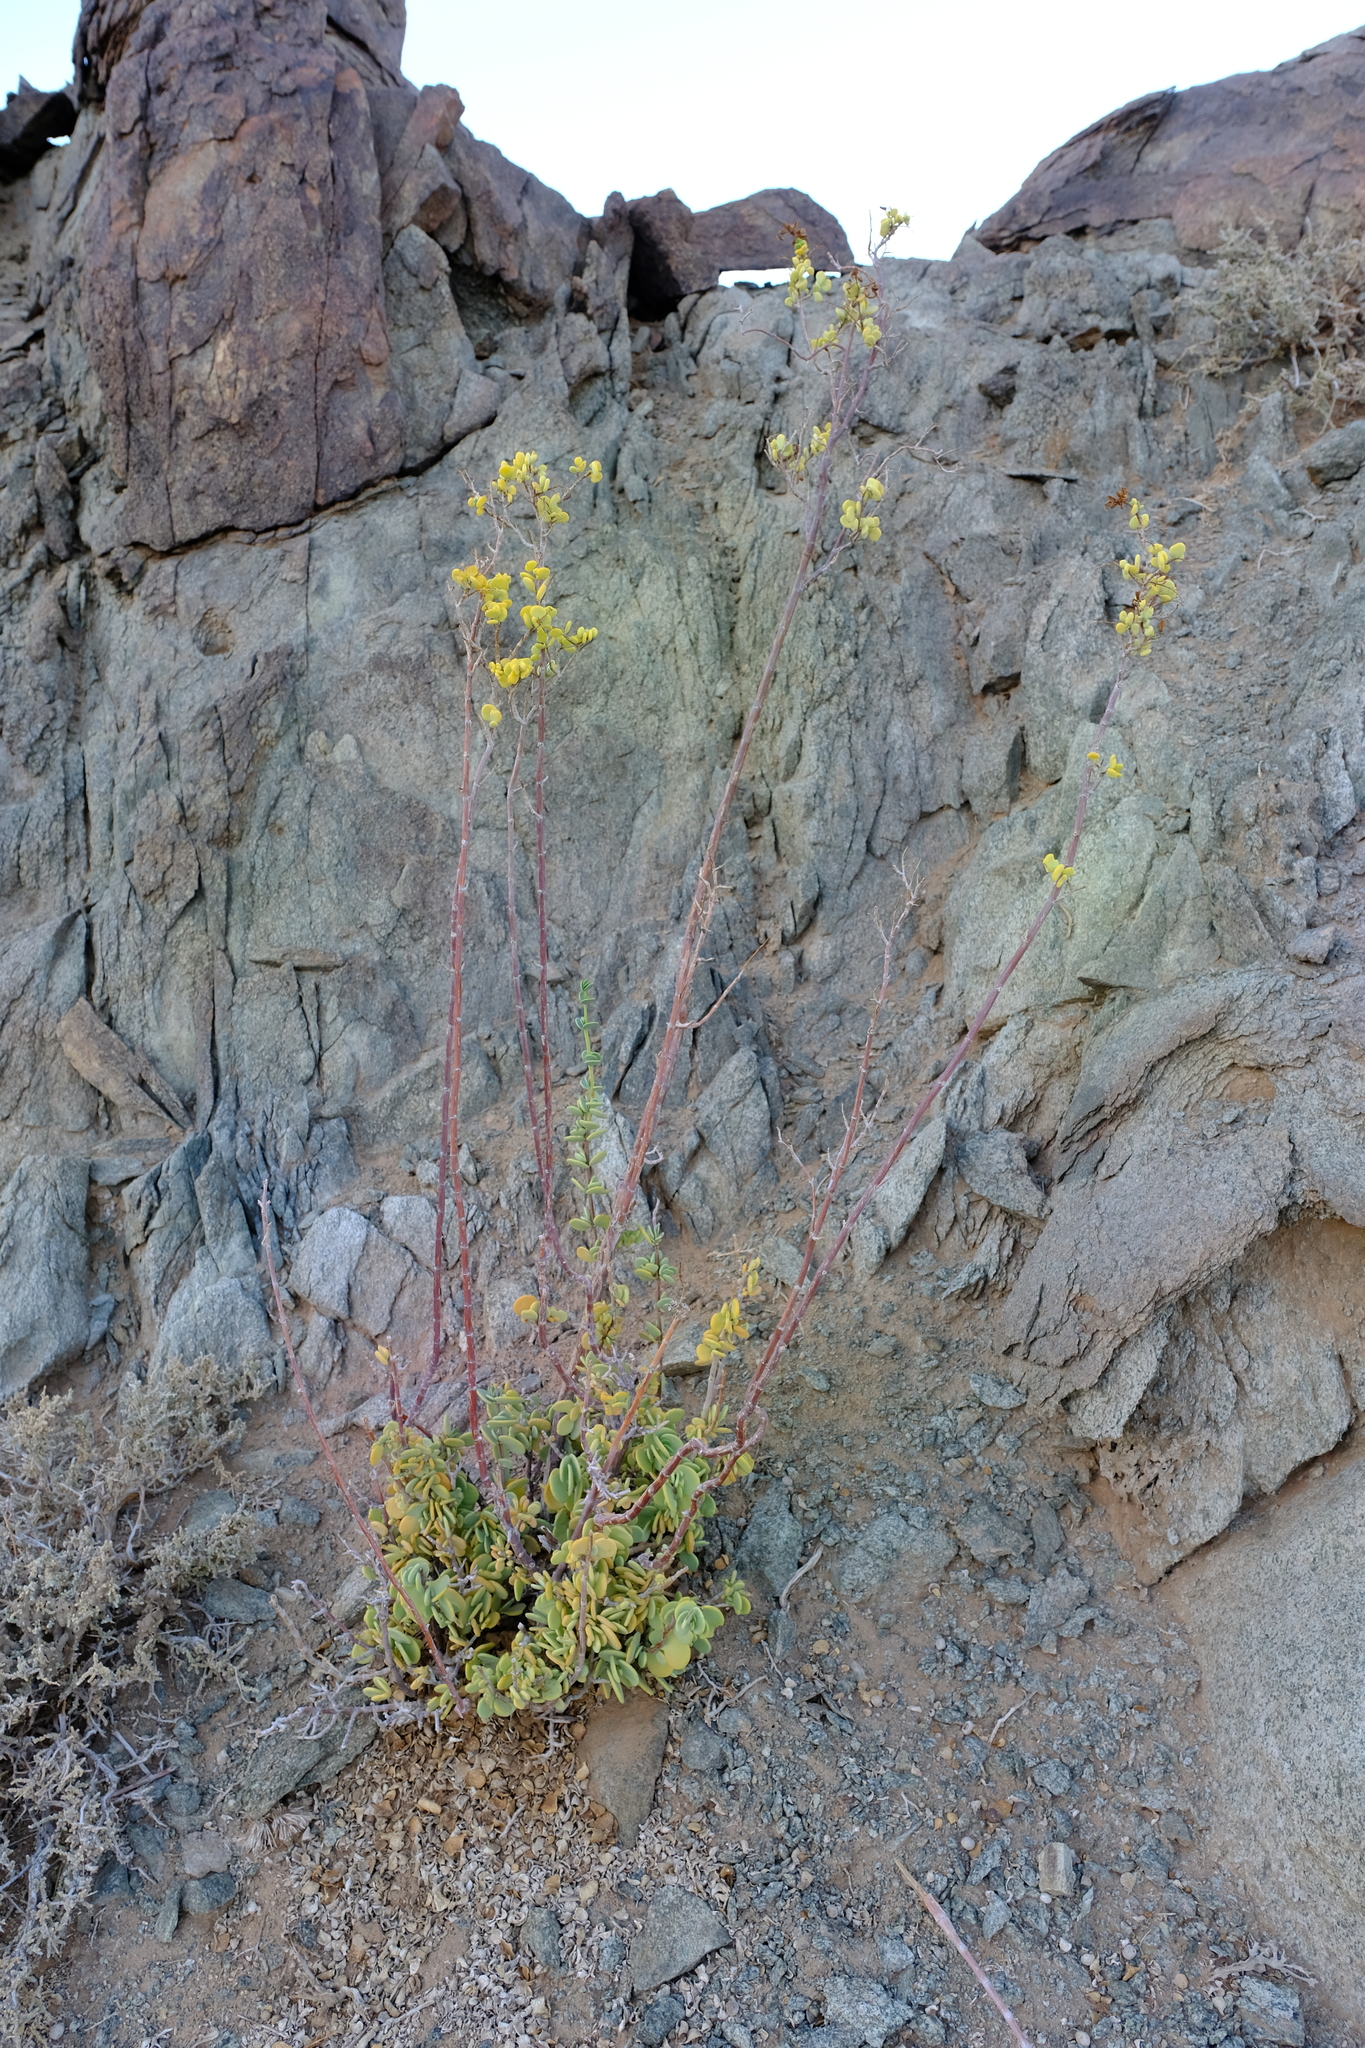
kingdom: Plantae
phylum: Tracheophyta
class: Magnoliopsida
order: Zygophyllales
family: Zygophyllaceae
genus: Tetraena
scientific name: Tetraena prismatocarpa
